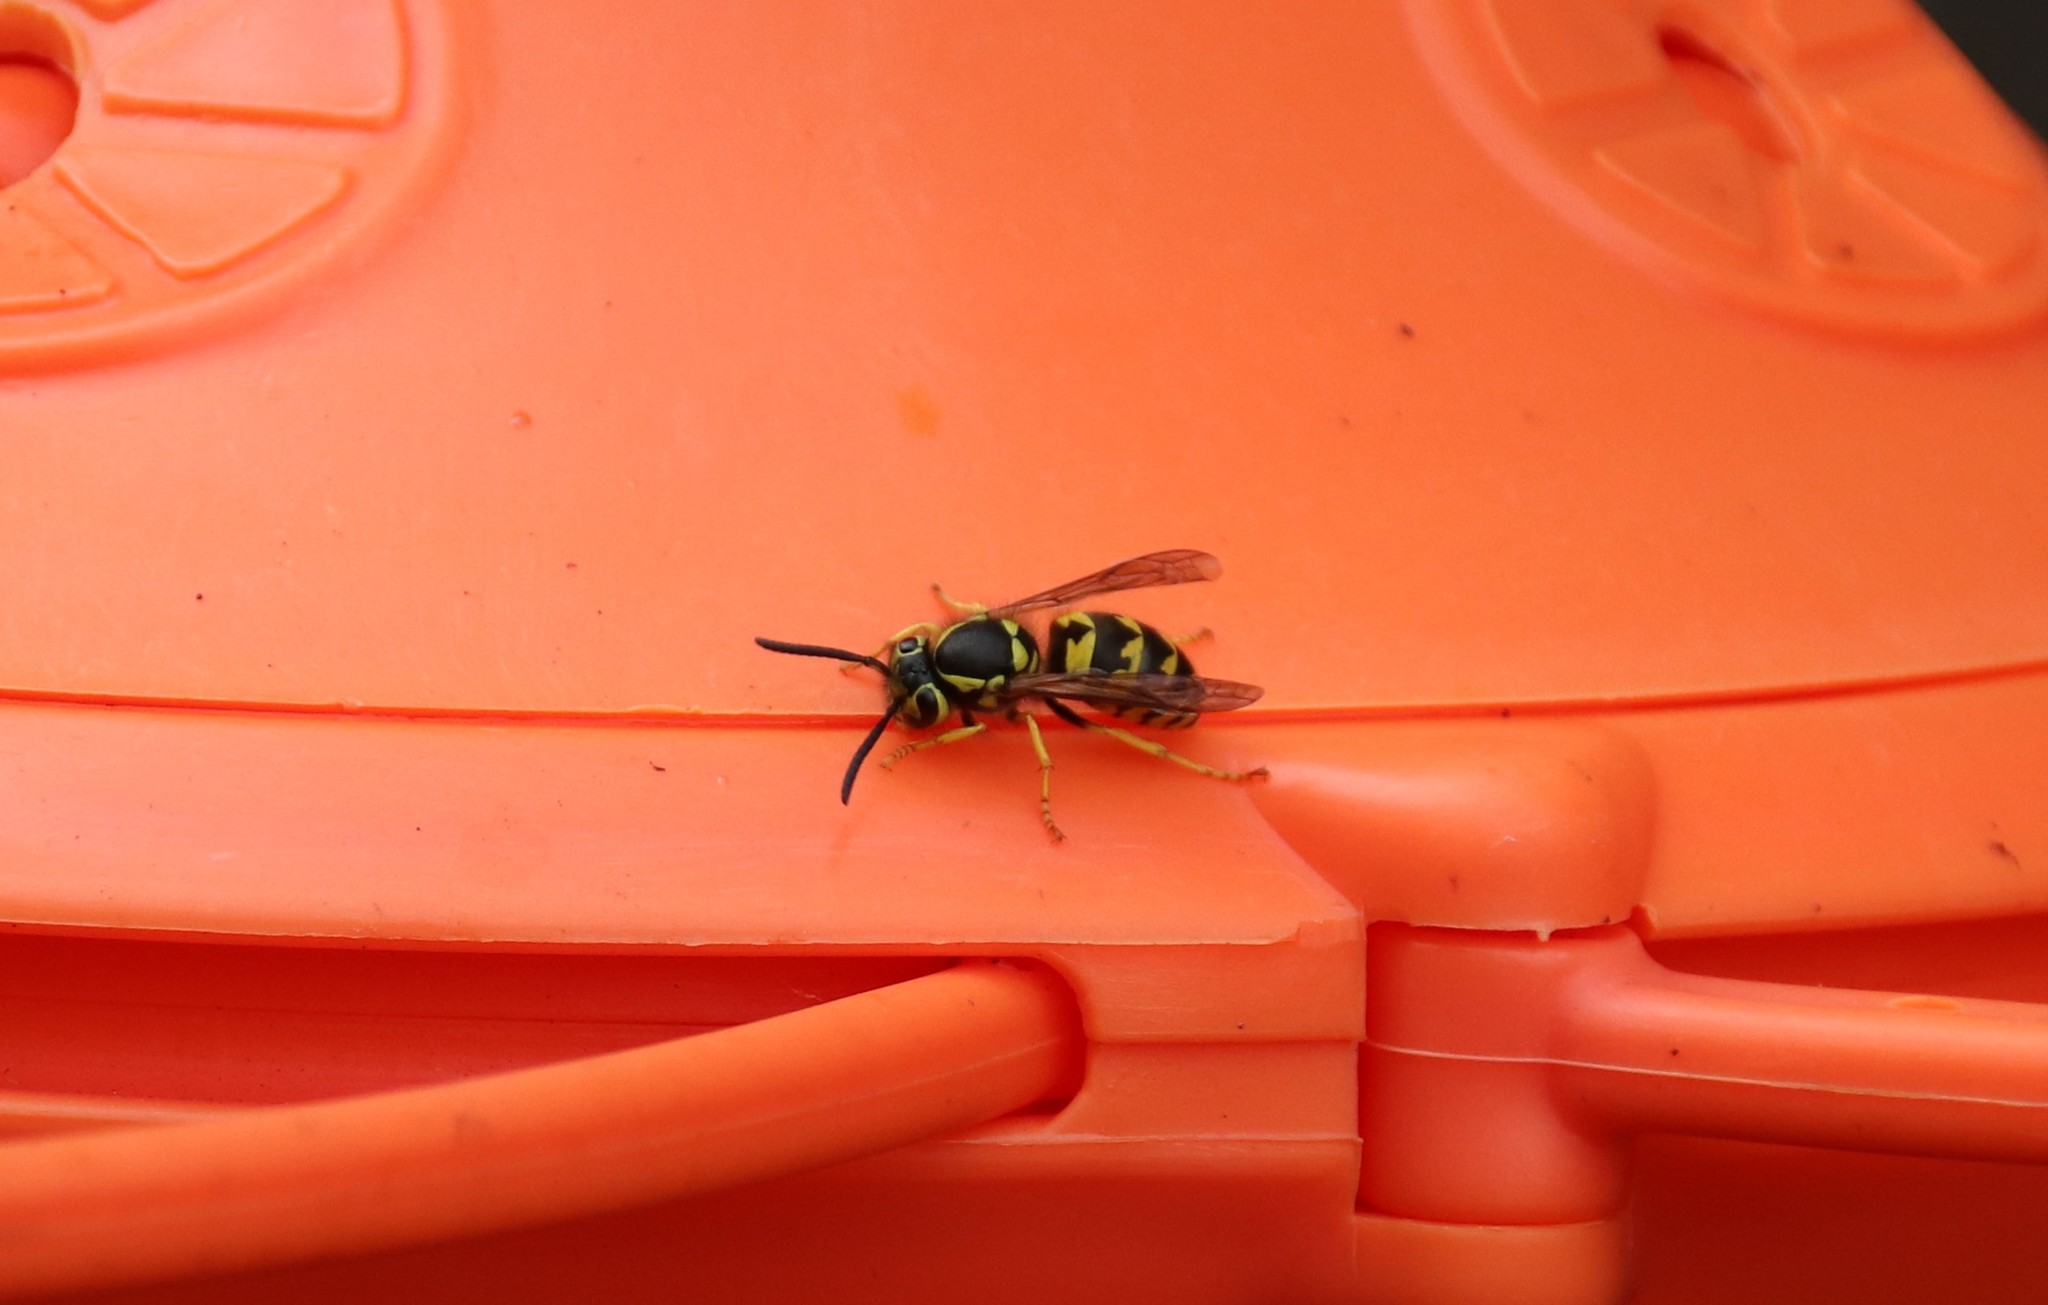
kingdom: Animalia
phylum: Arthropoda
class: Insecta
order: Hymenoptera
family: Vespidae
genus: Vespula
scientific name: Vespula pensylvanica
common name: Western yellowjacket
